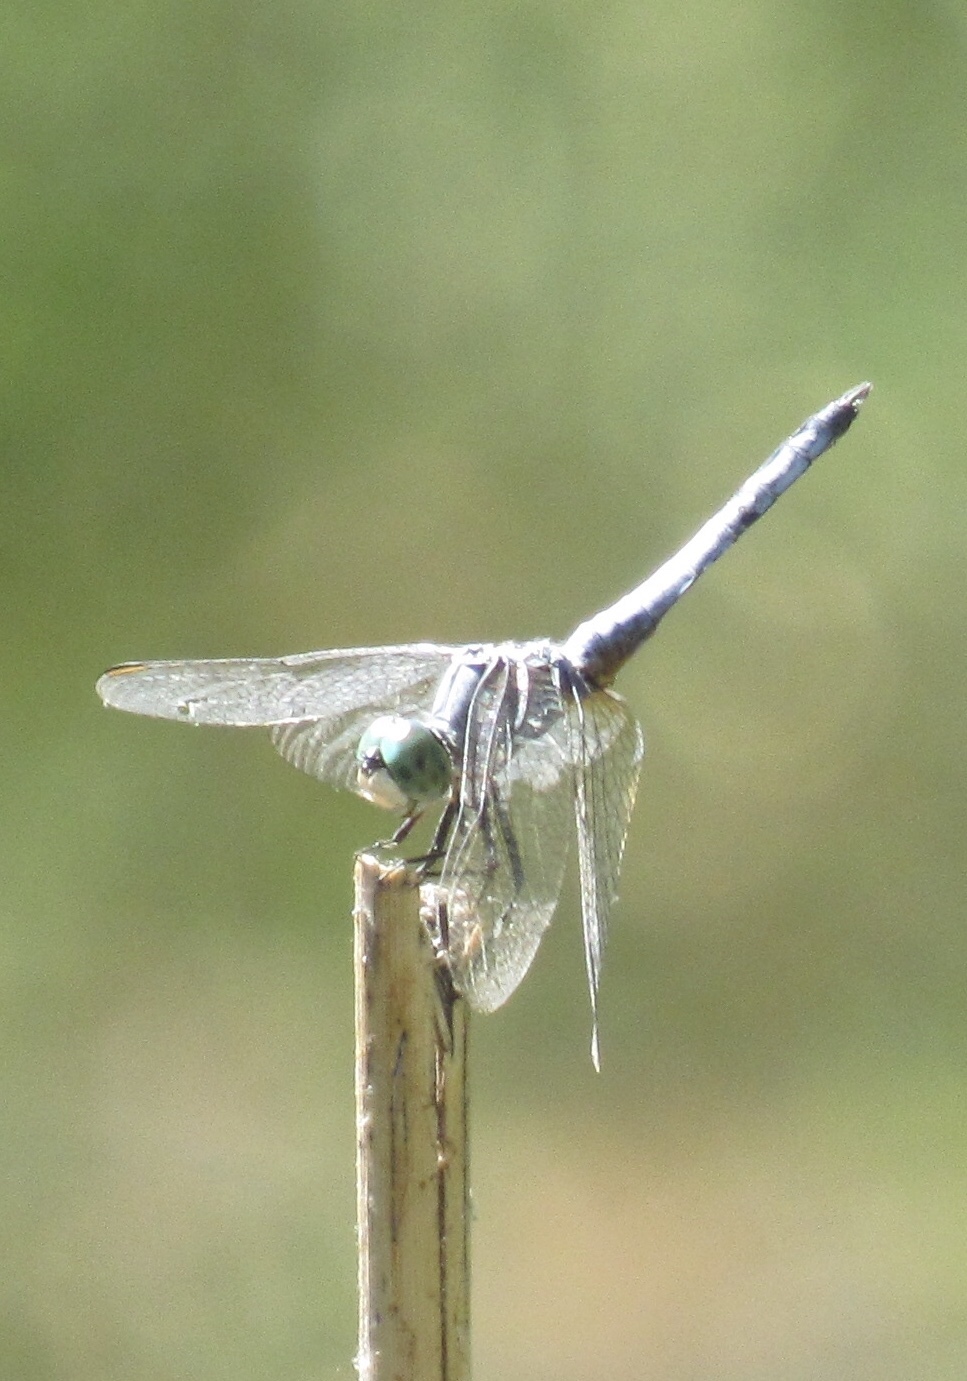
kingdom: Animalia
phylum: Arthropoda
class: Insecta
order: Odonata
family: Libellulidae
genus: Pachydiplax
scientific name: Pachydiplax longipennis
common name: Blue dasher
